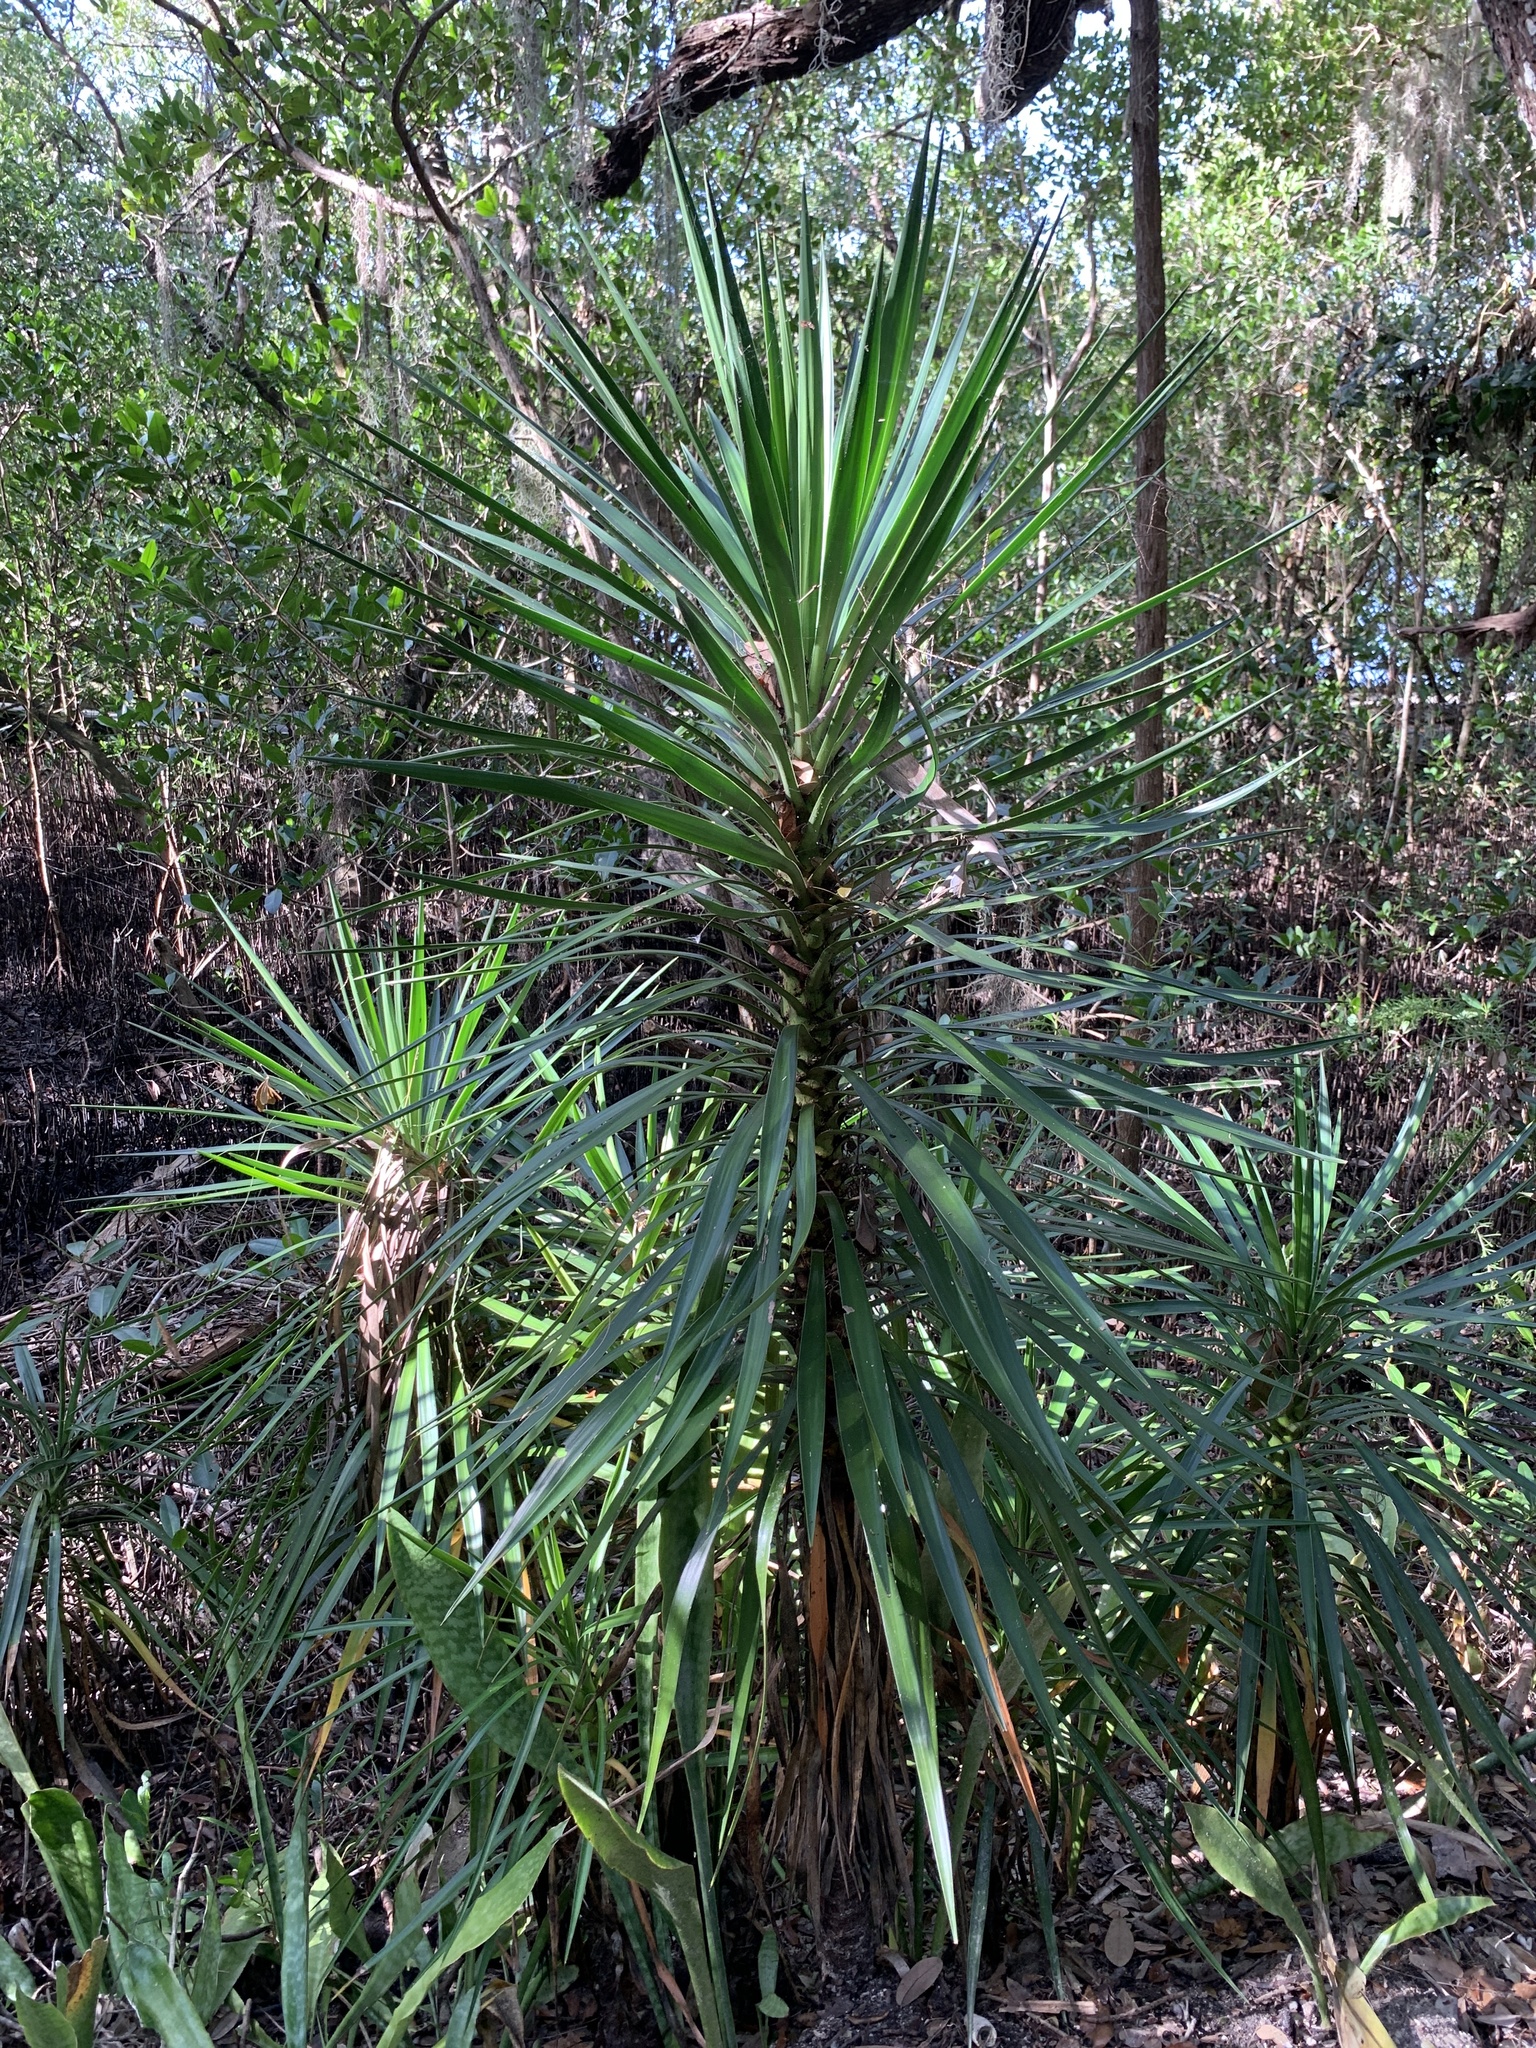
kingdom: Plantae
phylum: Tracheophyta
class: Liliopsida
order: Asparagales
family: Asparagaceae
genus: Yucca
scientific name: Yucca aloifolia
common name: Aloe yucca
